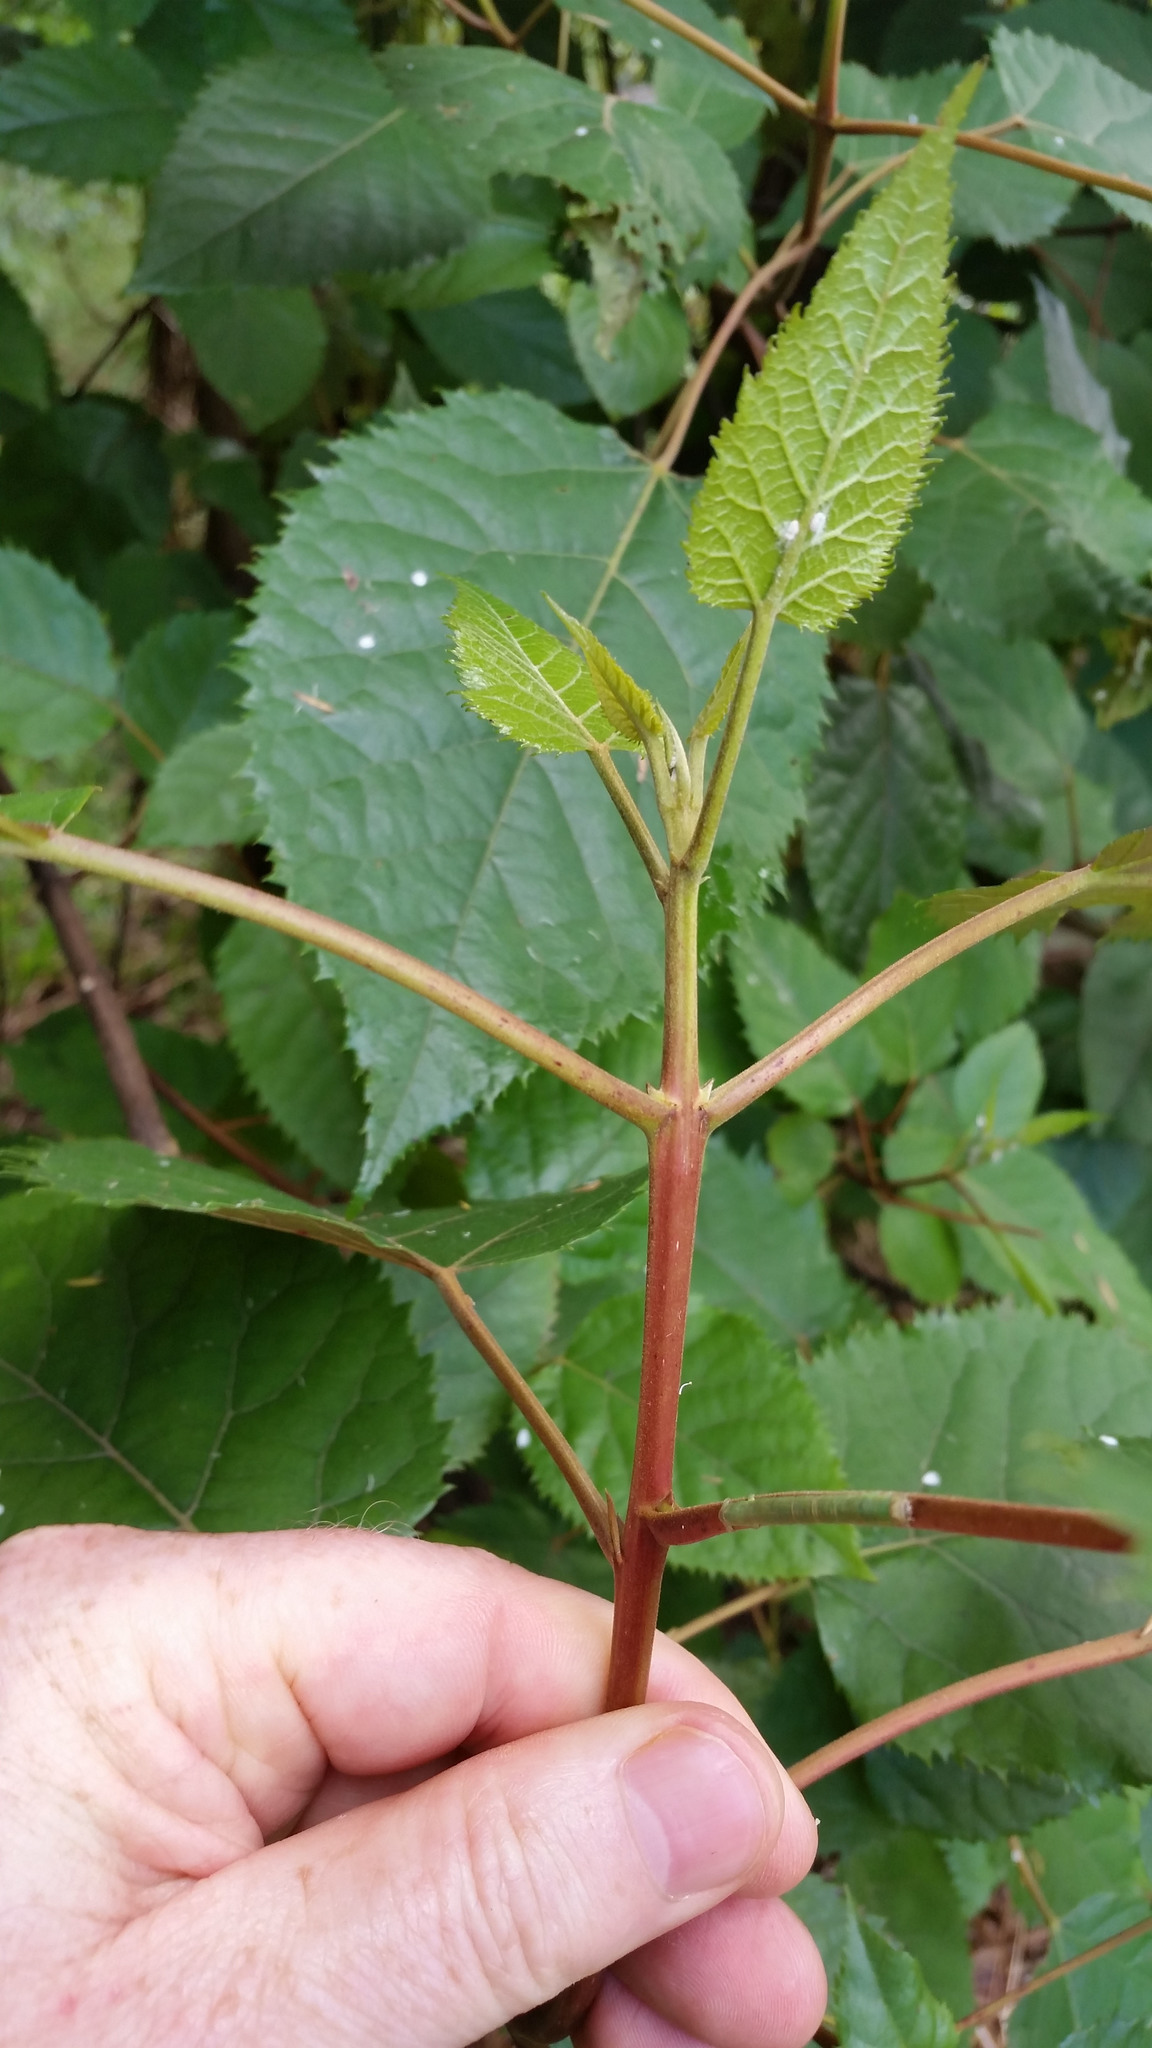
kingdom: Plantae
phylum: Tracheophyta
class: Magnoliopsida
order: Oxalidales
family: Elaeocarpaceae
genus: Aristotelia
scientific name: Aristotelia serrata
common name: New zealand wineberry
